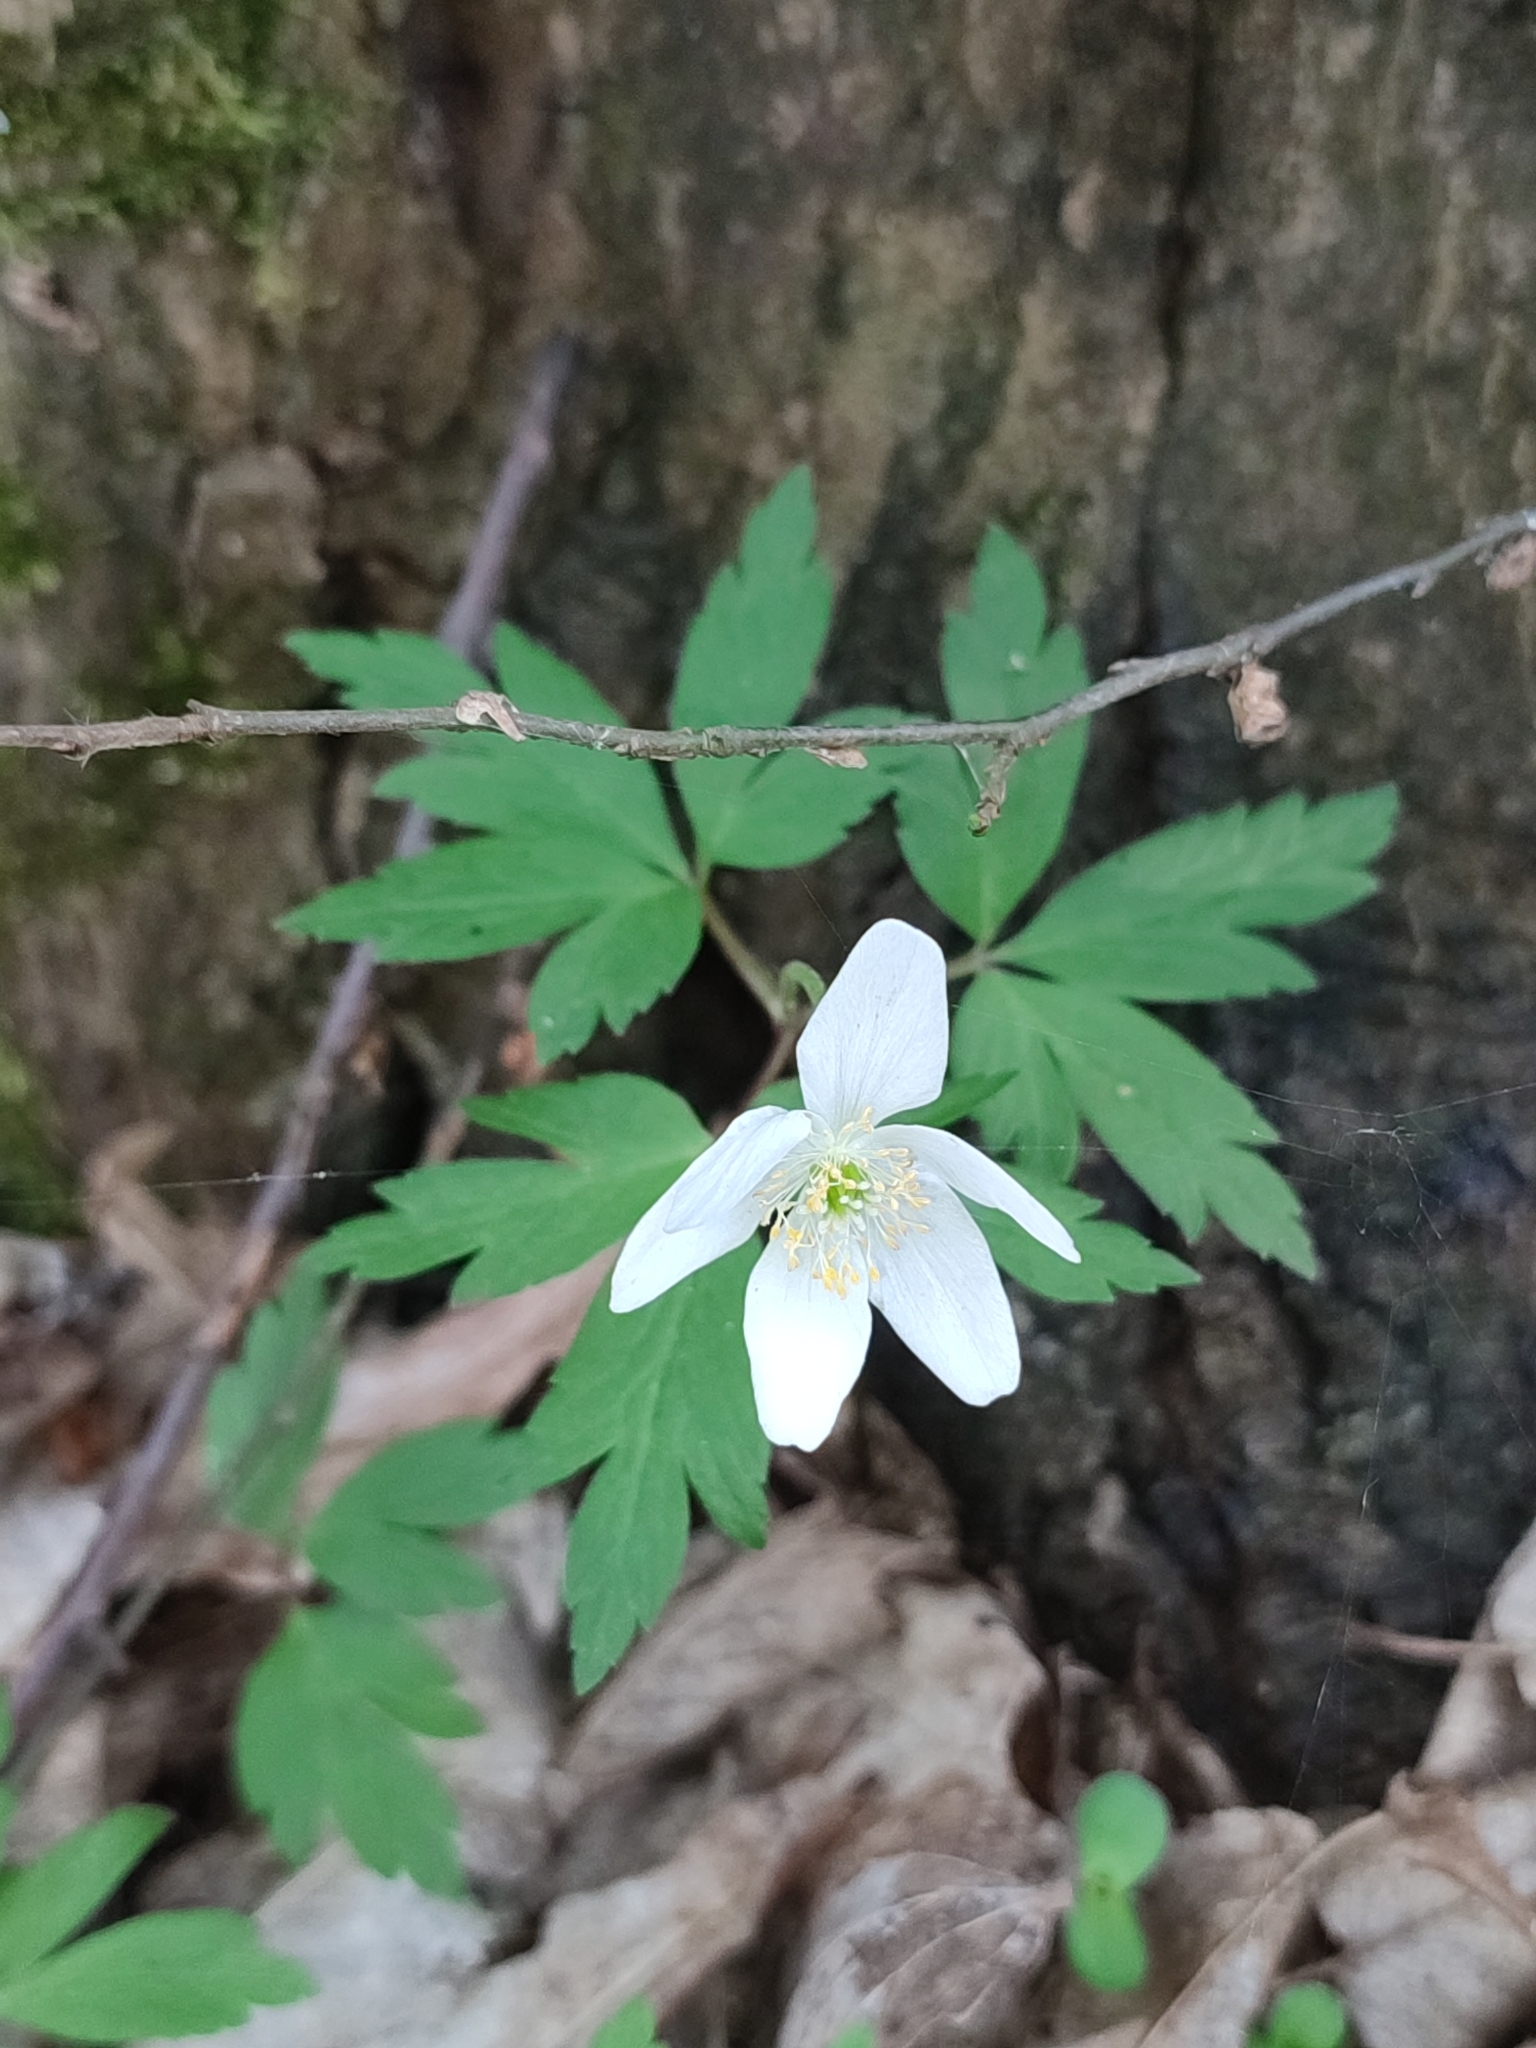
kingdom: Plantae
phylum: Tracheophyta
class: Magnoliopsida
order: Ranunculales
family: Ranunculaceae
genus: Anemone
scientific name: Anemone nemorosa
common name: Wood anemone
